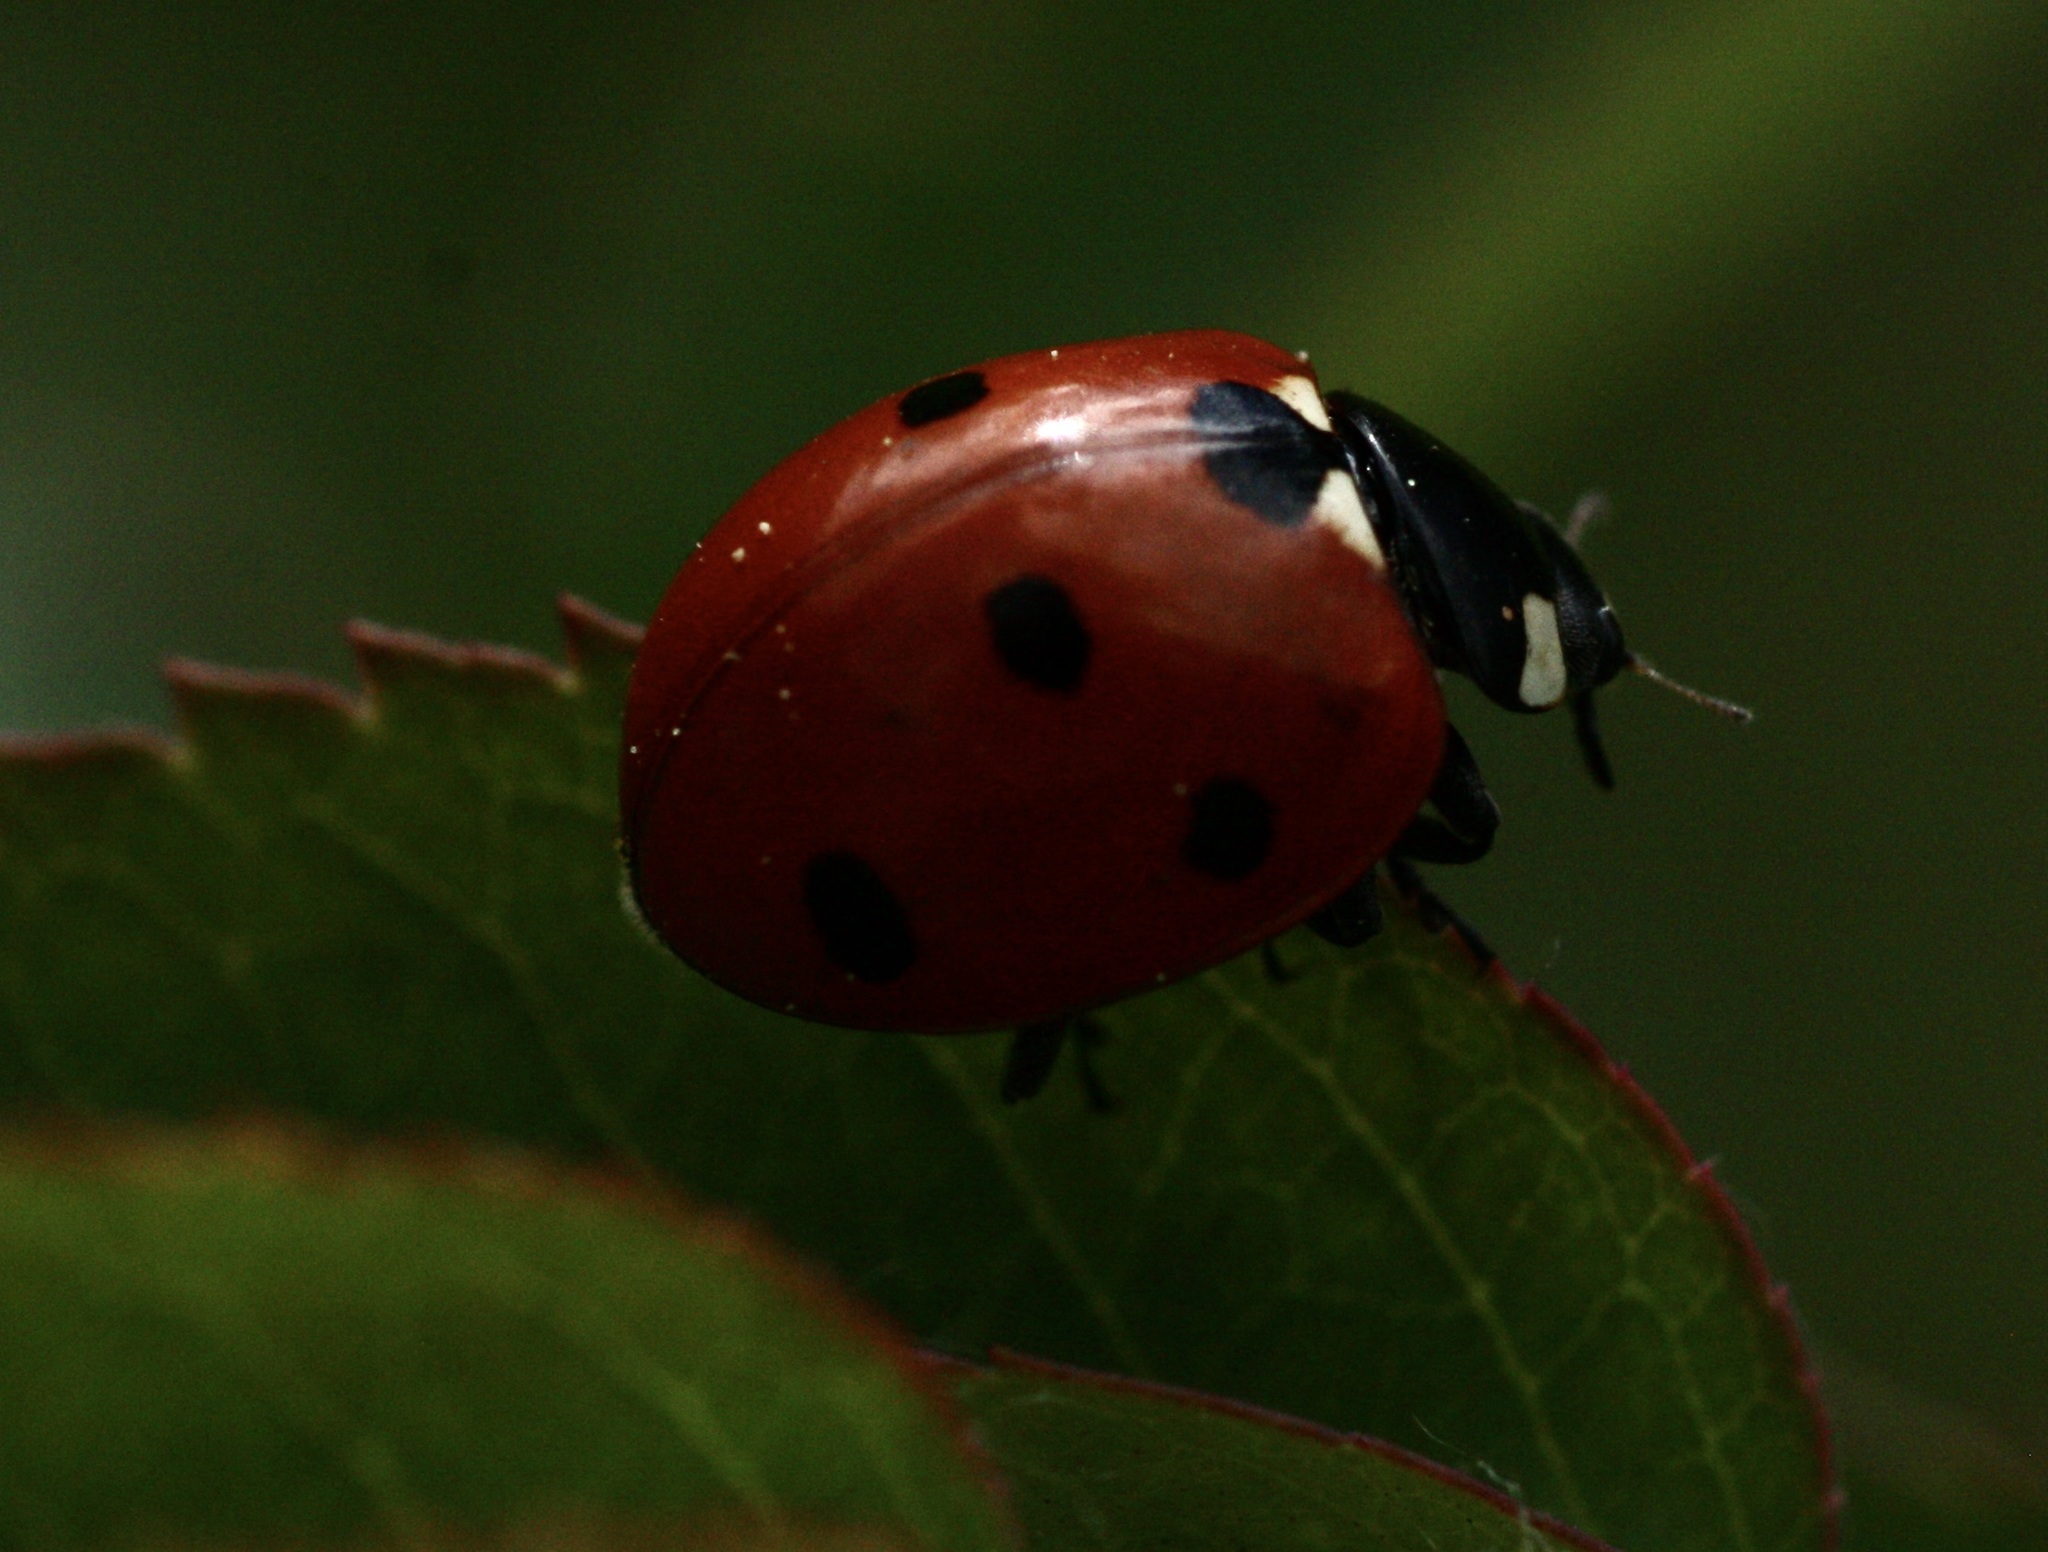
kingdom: Animalia
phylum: Arthropoda
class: Insecta
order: Coleoptera
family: Coccinellidae
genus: Coccinella
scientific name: Coccinella septempunctata
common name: Sevenspotted lady beetle
